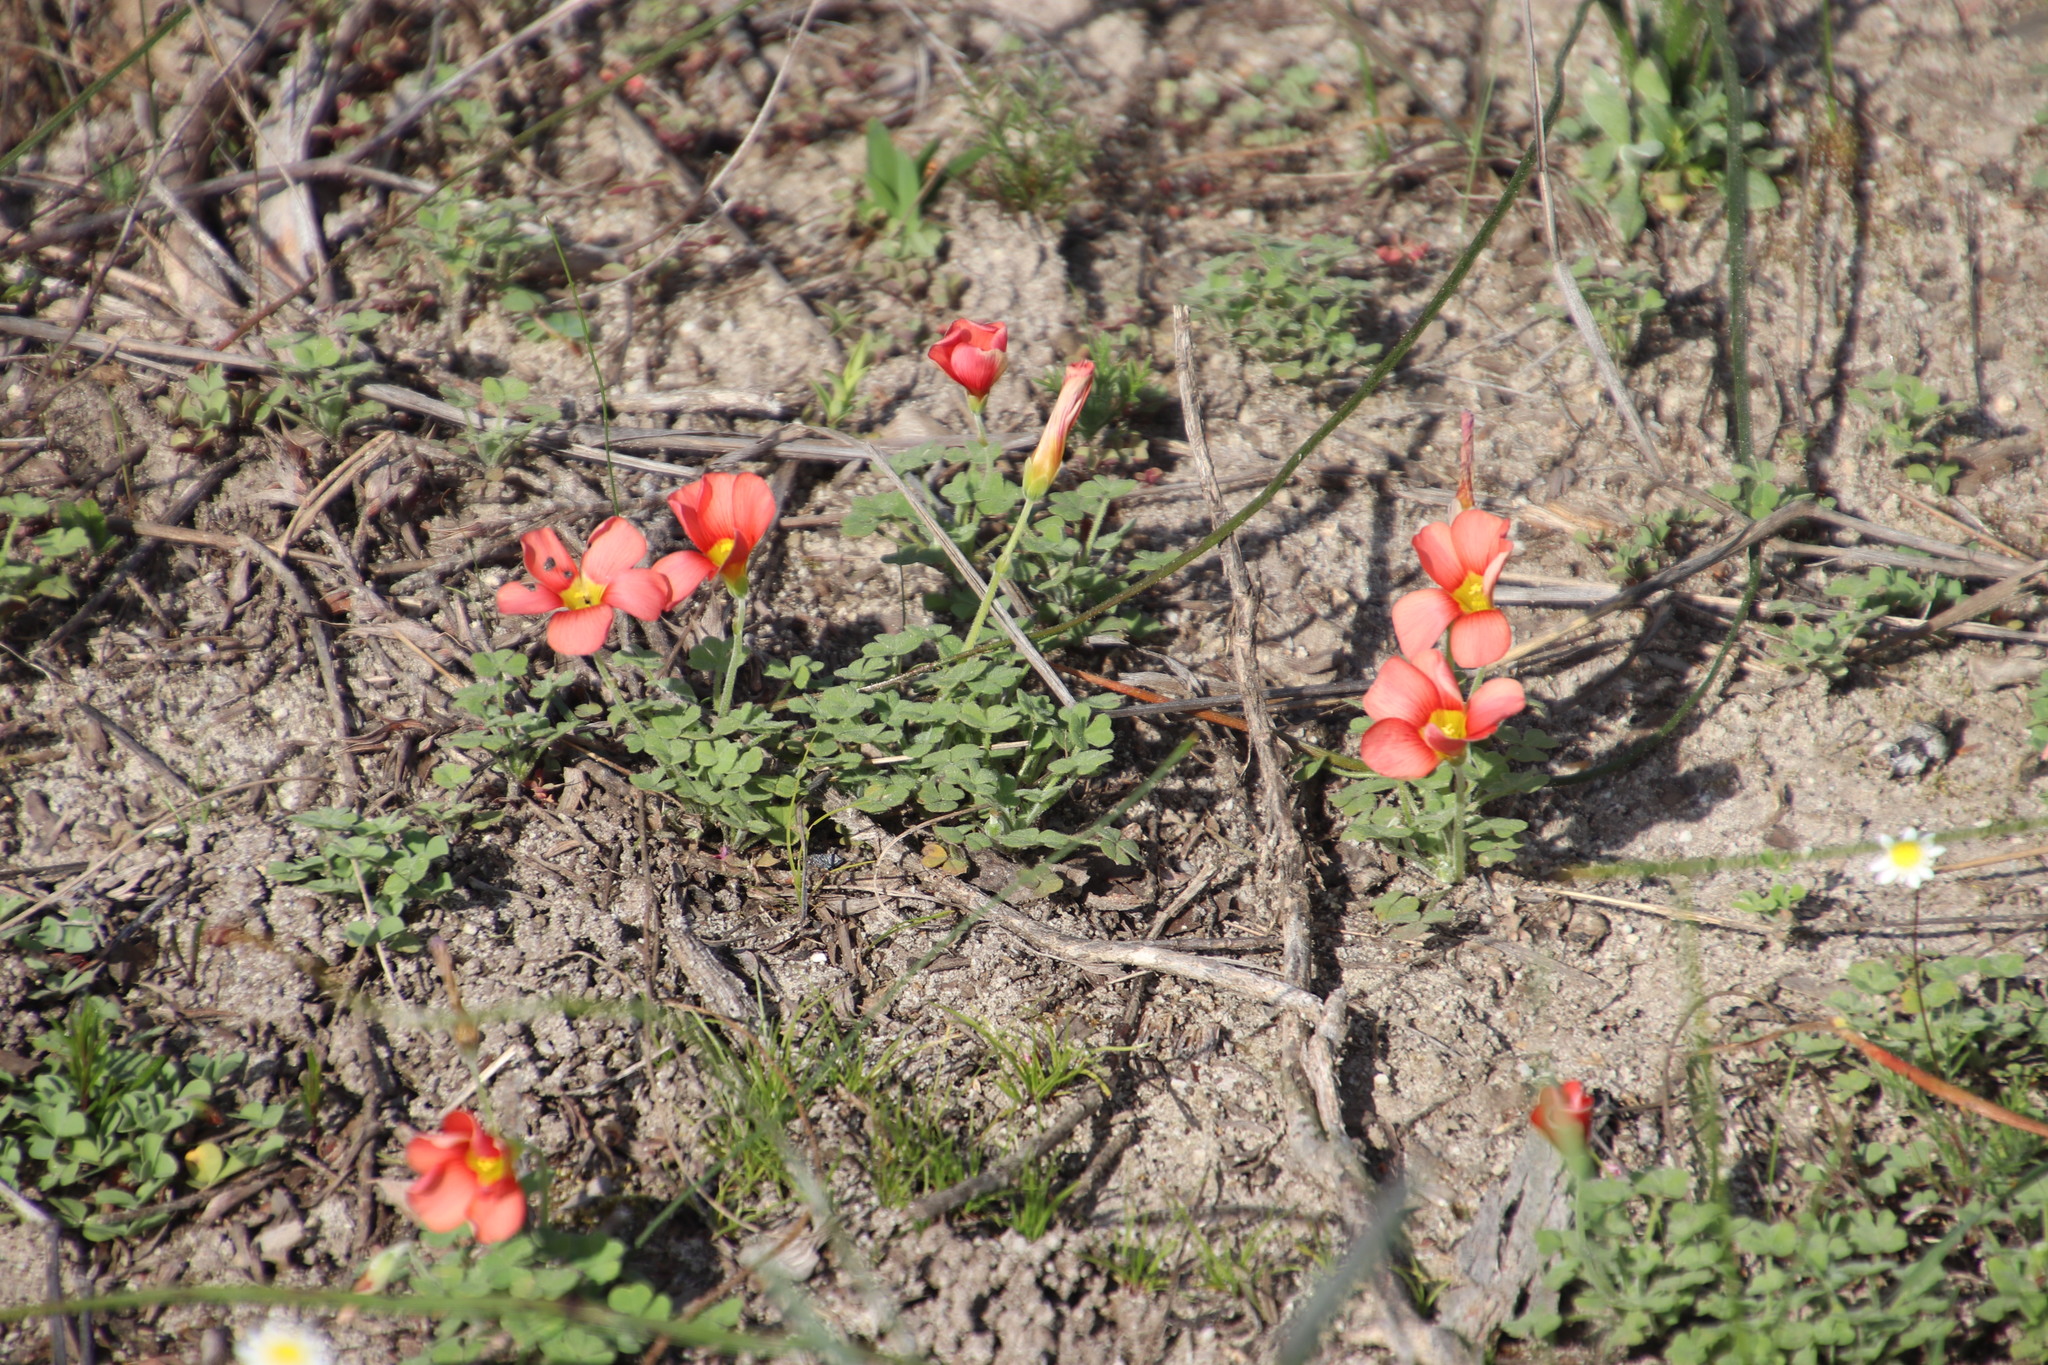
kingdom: Plantae
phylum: Tracheophyta
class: Magnoliopsida
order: Oxalidales
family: Oxalidaceae
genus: Oxalis
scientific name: Oxalis obtusa
